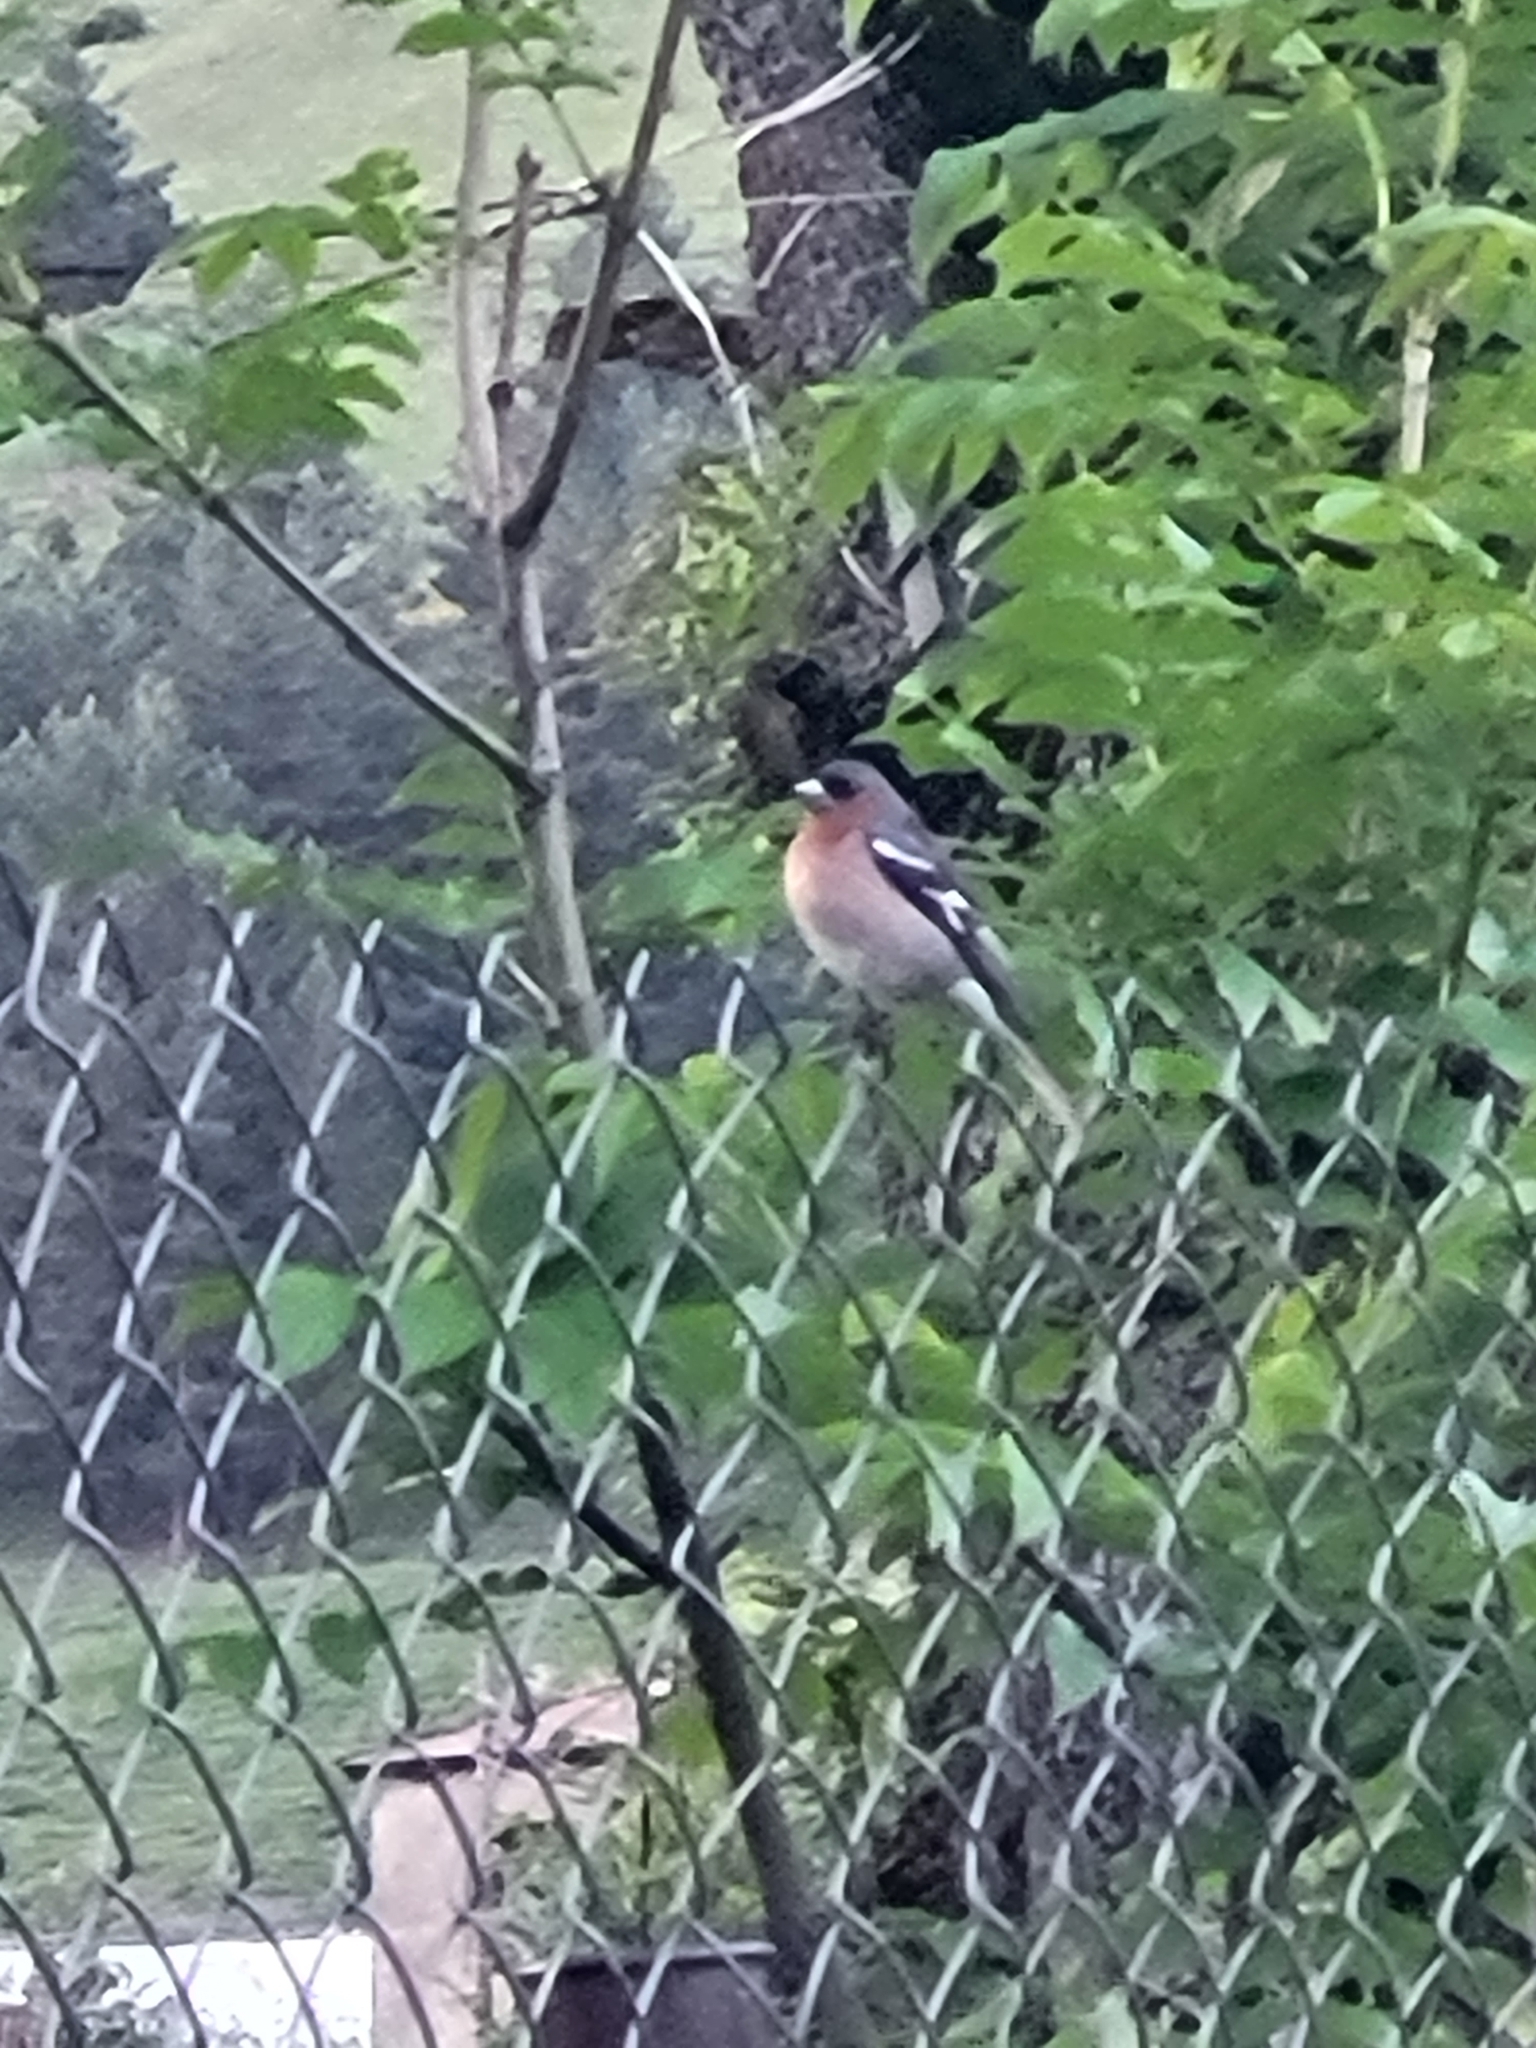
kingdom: Animalia
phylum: Chordata
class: Aves
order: Passeriformes
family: Fringillidae
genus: Fringilla
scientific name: Fringilla coelebs
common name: Common chaffinch
